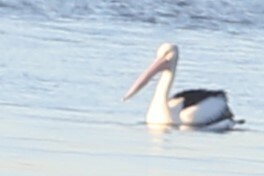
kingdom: Animalia
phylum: Chordata
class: Aves
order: Pelecaniformes
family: Pelecanidae
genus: Pelecanus
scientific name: Pelecanus conspicillatus
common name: Australian pelican
